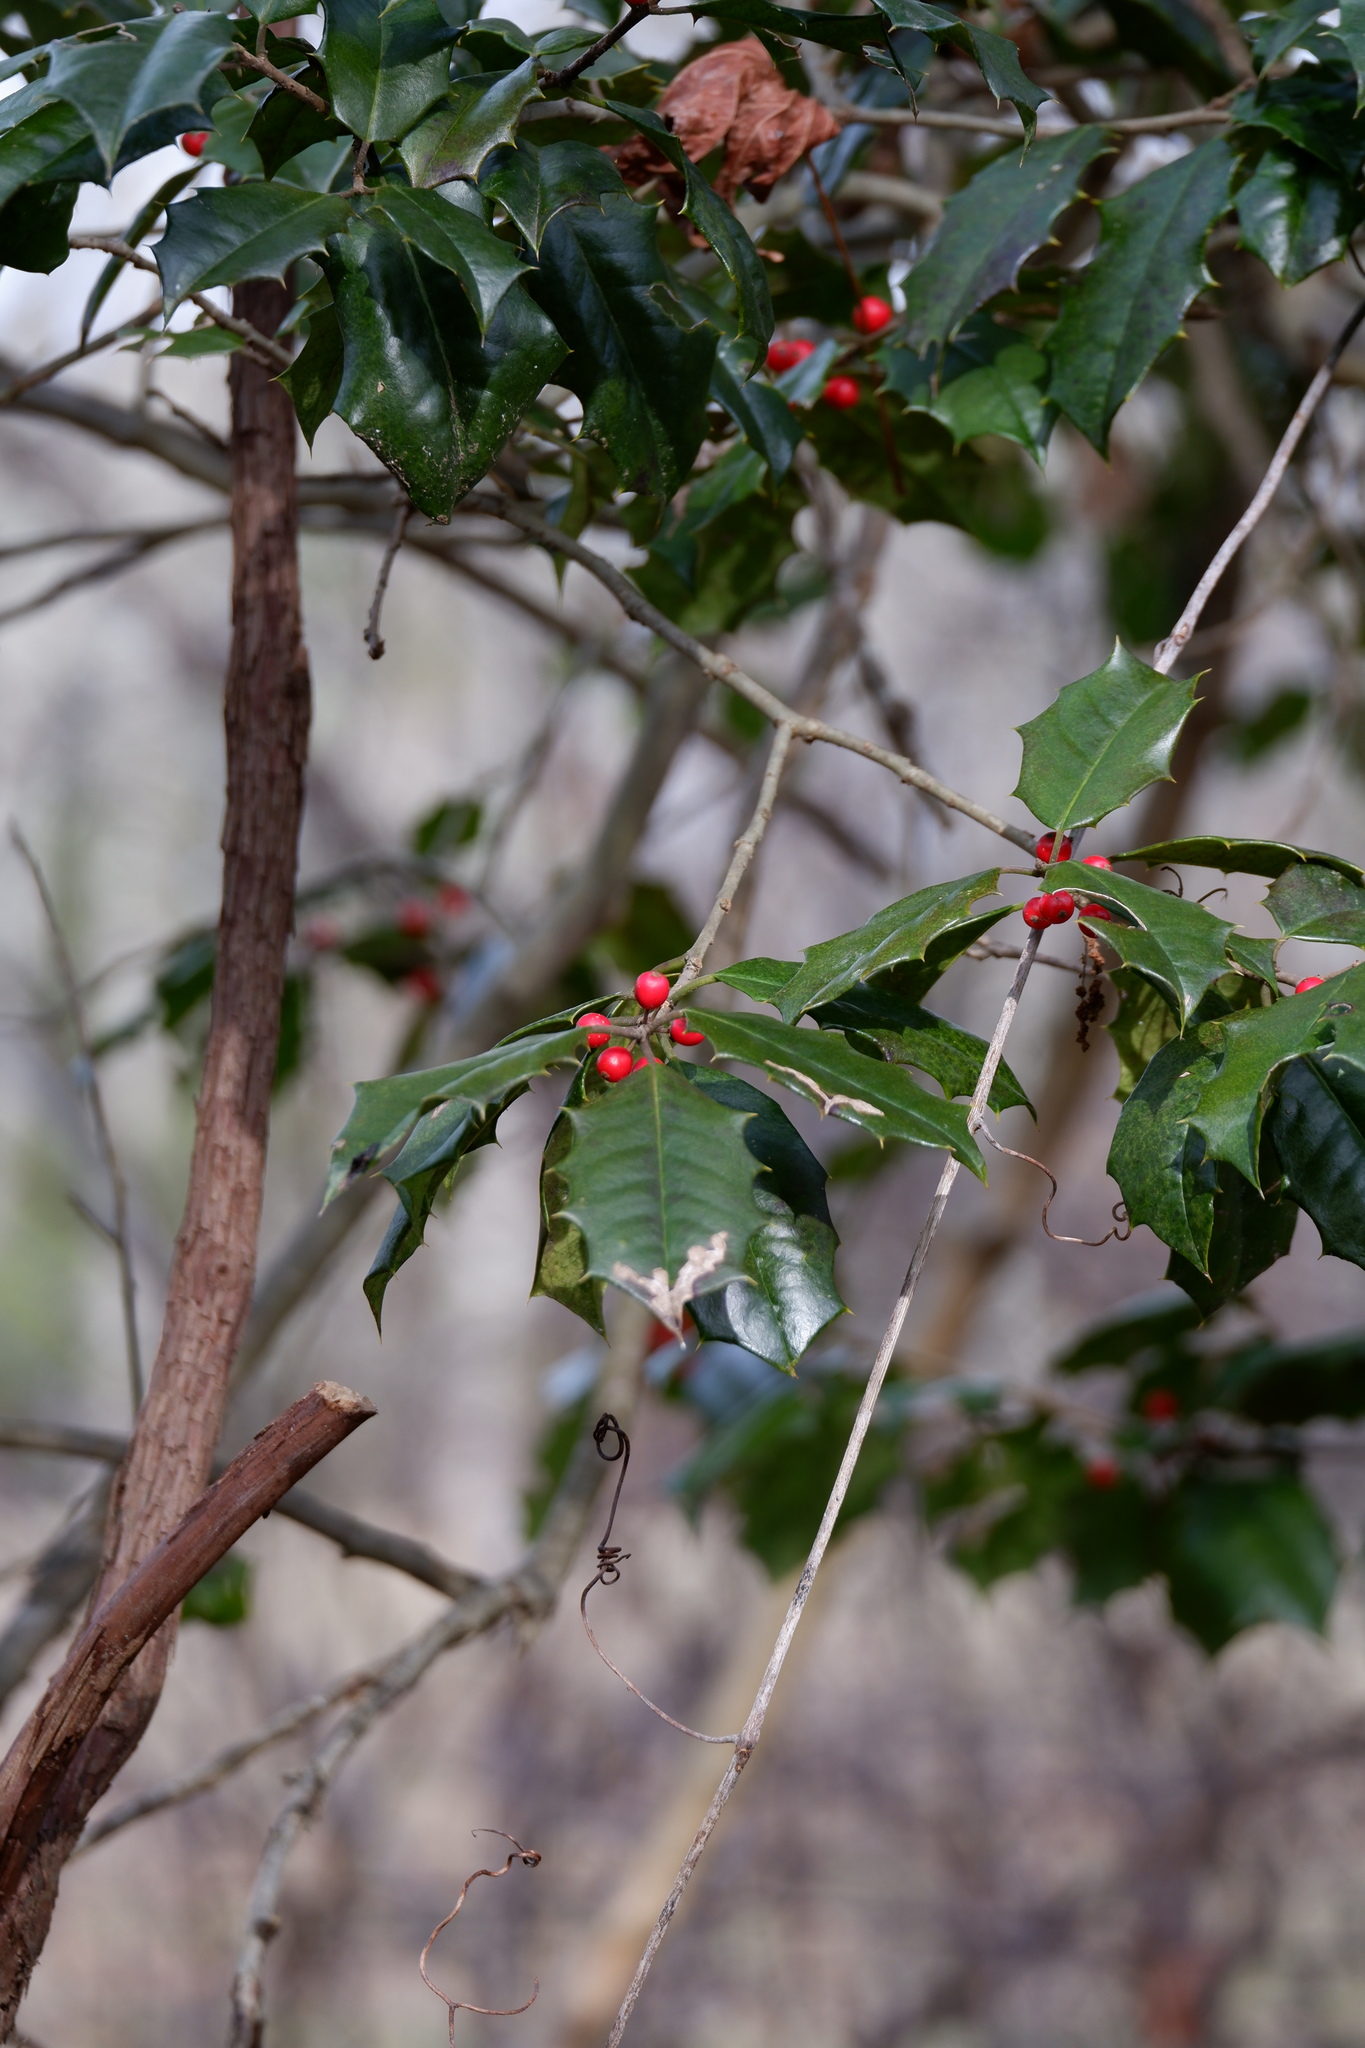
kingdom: Plantae
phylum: Tracheophyta
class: Magnoliopsida
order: Aquifoliales
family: Aquifoliaceae
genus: Ilex
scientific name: Ilex opaca
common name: American holly
